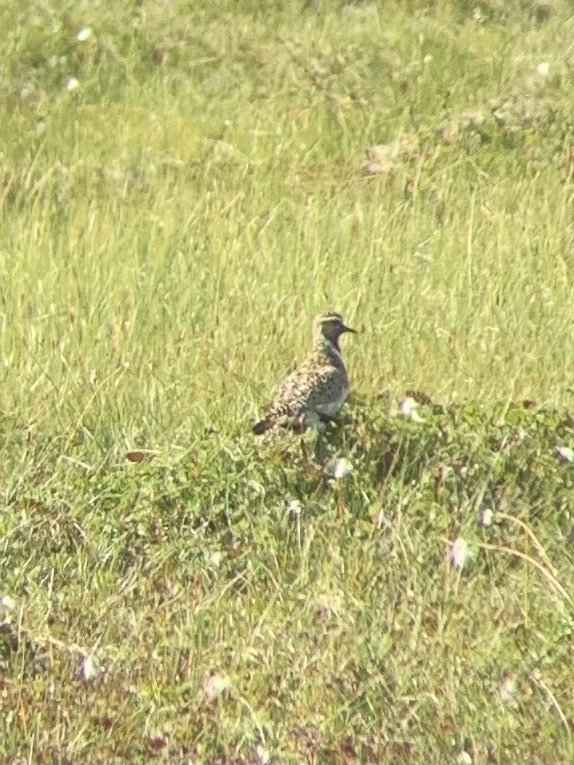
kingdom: Animalia
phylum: Chordata
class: Aves
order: Charadriiformes
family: Charadriidae
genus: Pluvialis
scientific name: Pluvialis apricaria
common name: European golden plover
